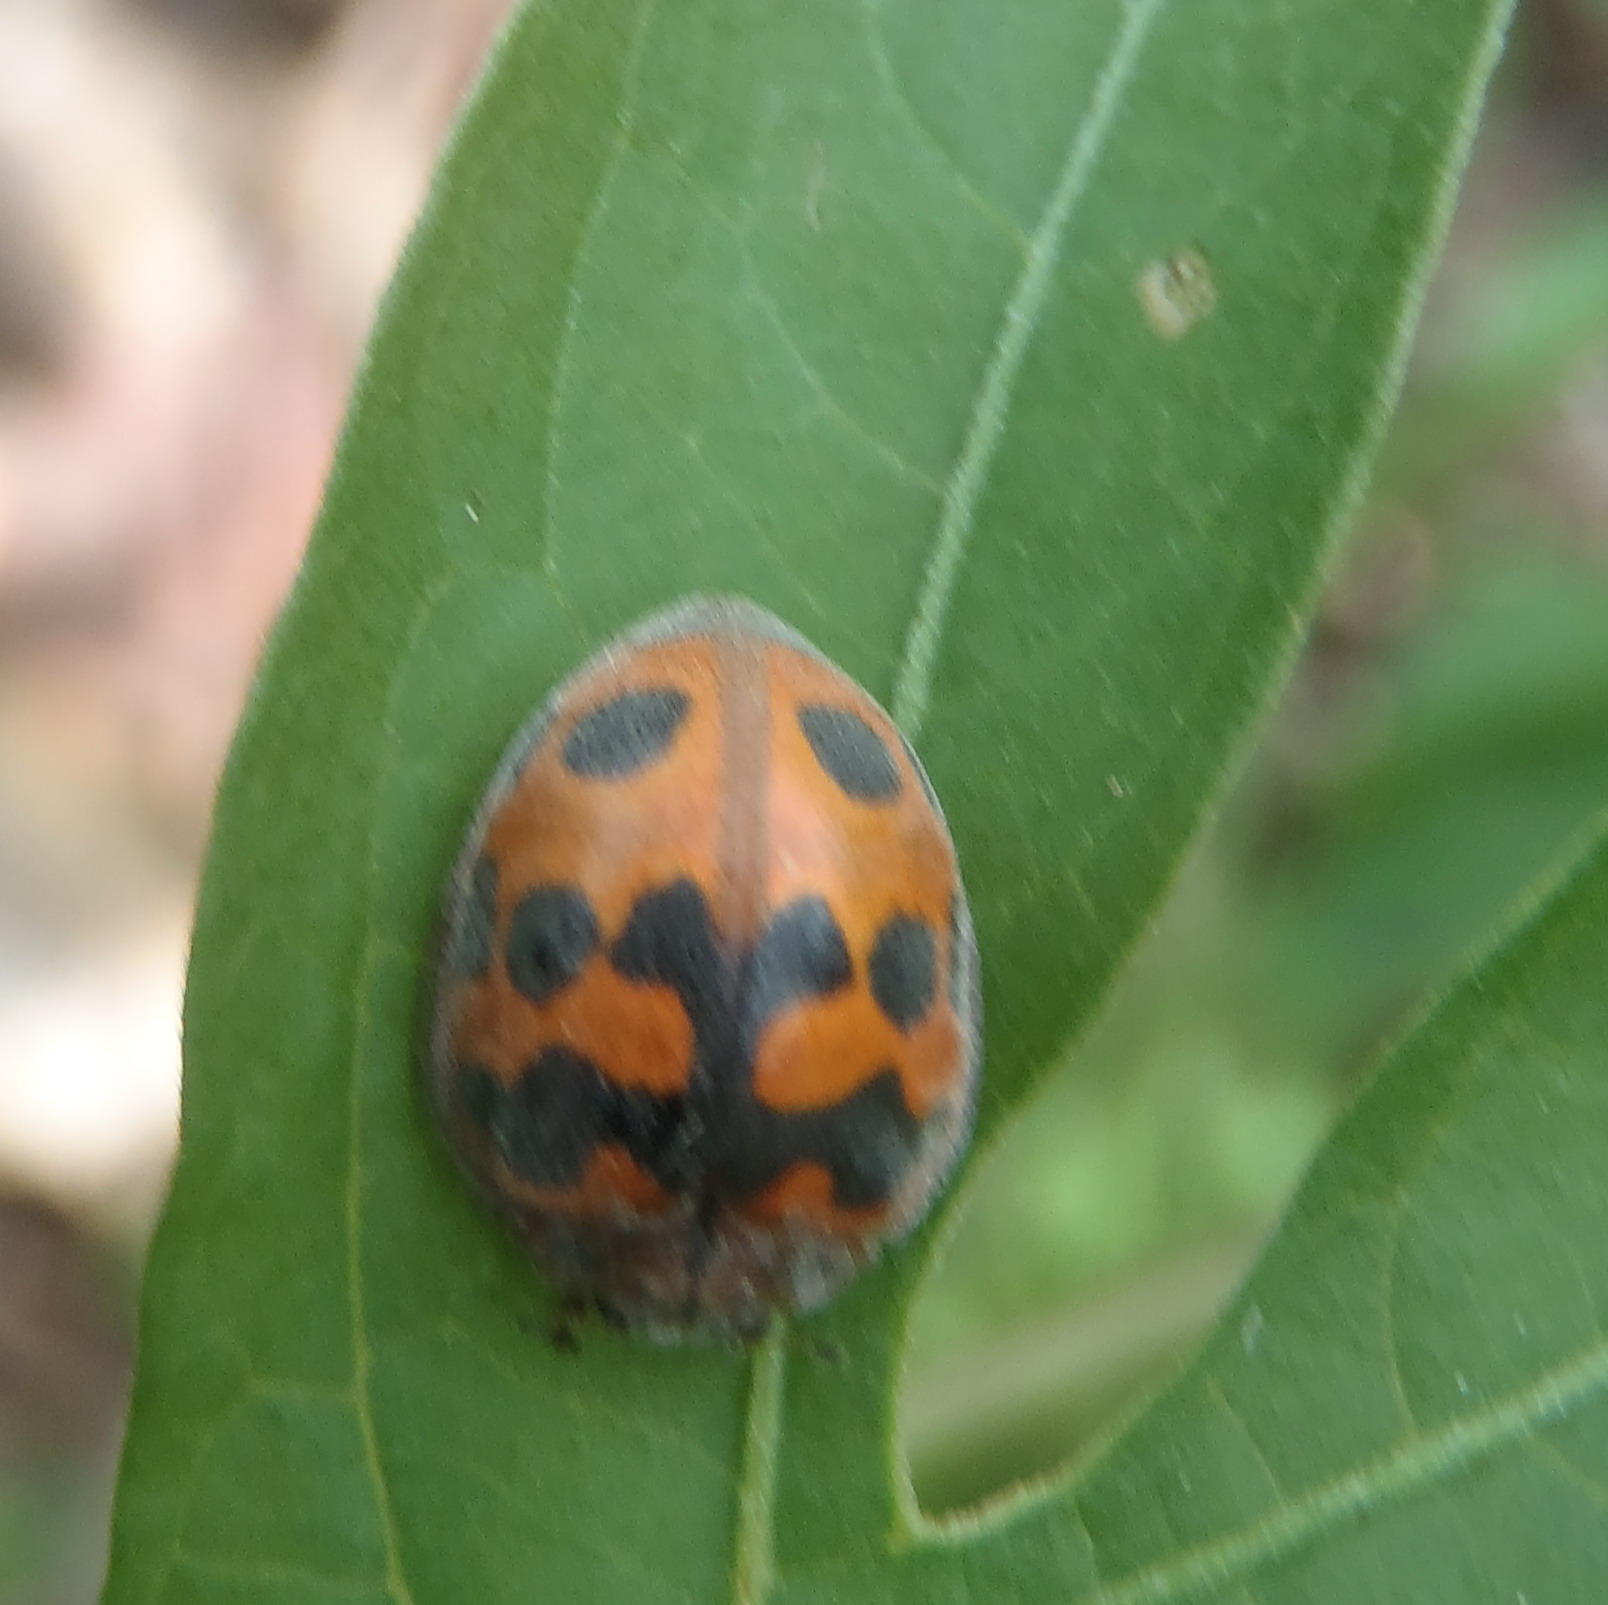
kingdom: Animalia
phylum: Arthropoda
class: Insecta
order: Coleoptera
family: Coccinellidae
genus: Chnootriba
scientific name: Chnootriba
